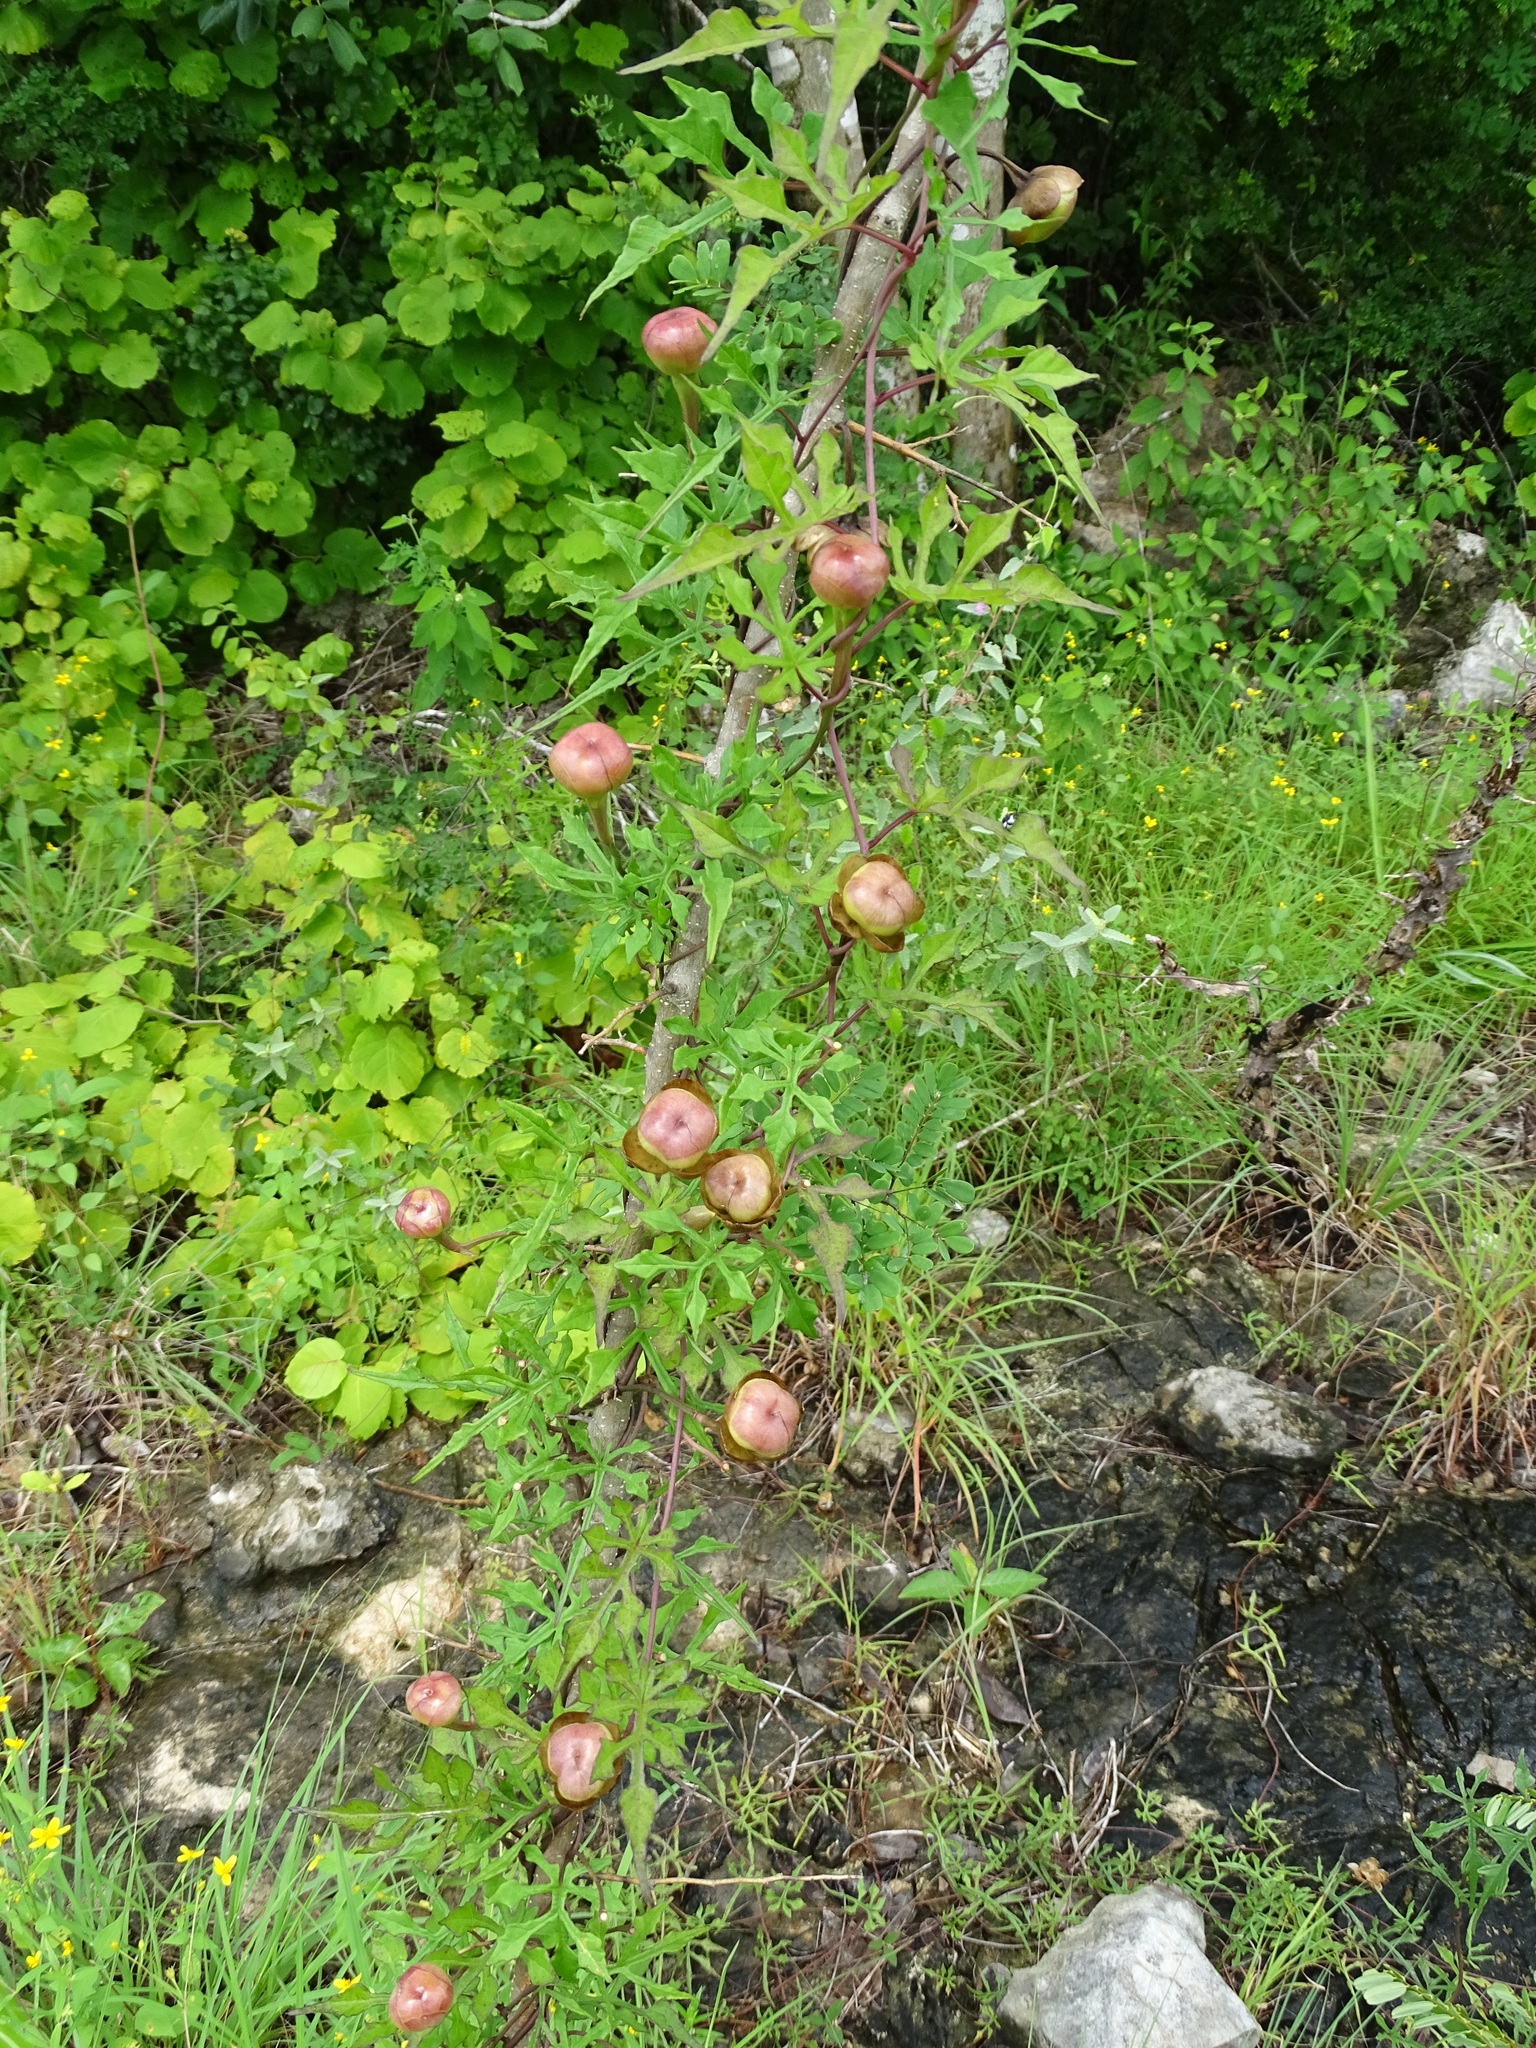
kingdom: Plantae
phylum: Tracheophyta
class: Magnoliopsida
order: Solanales
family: Convolvulaceae
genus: Operculina
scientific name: Operculina pinnatifida
